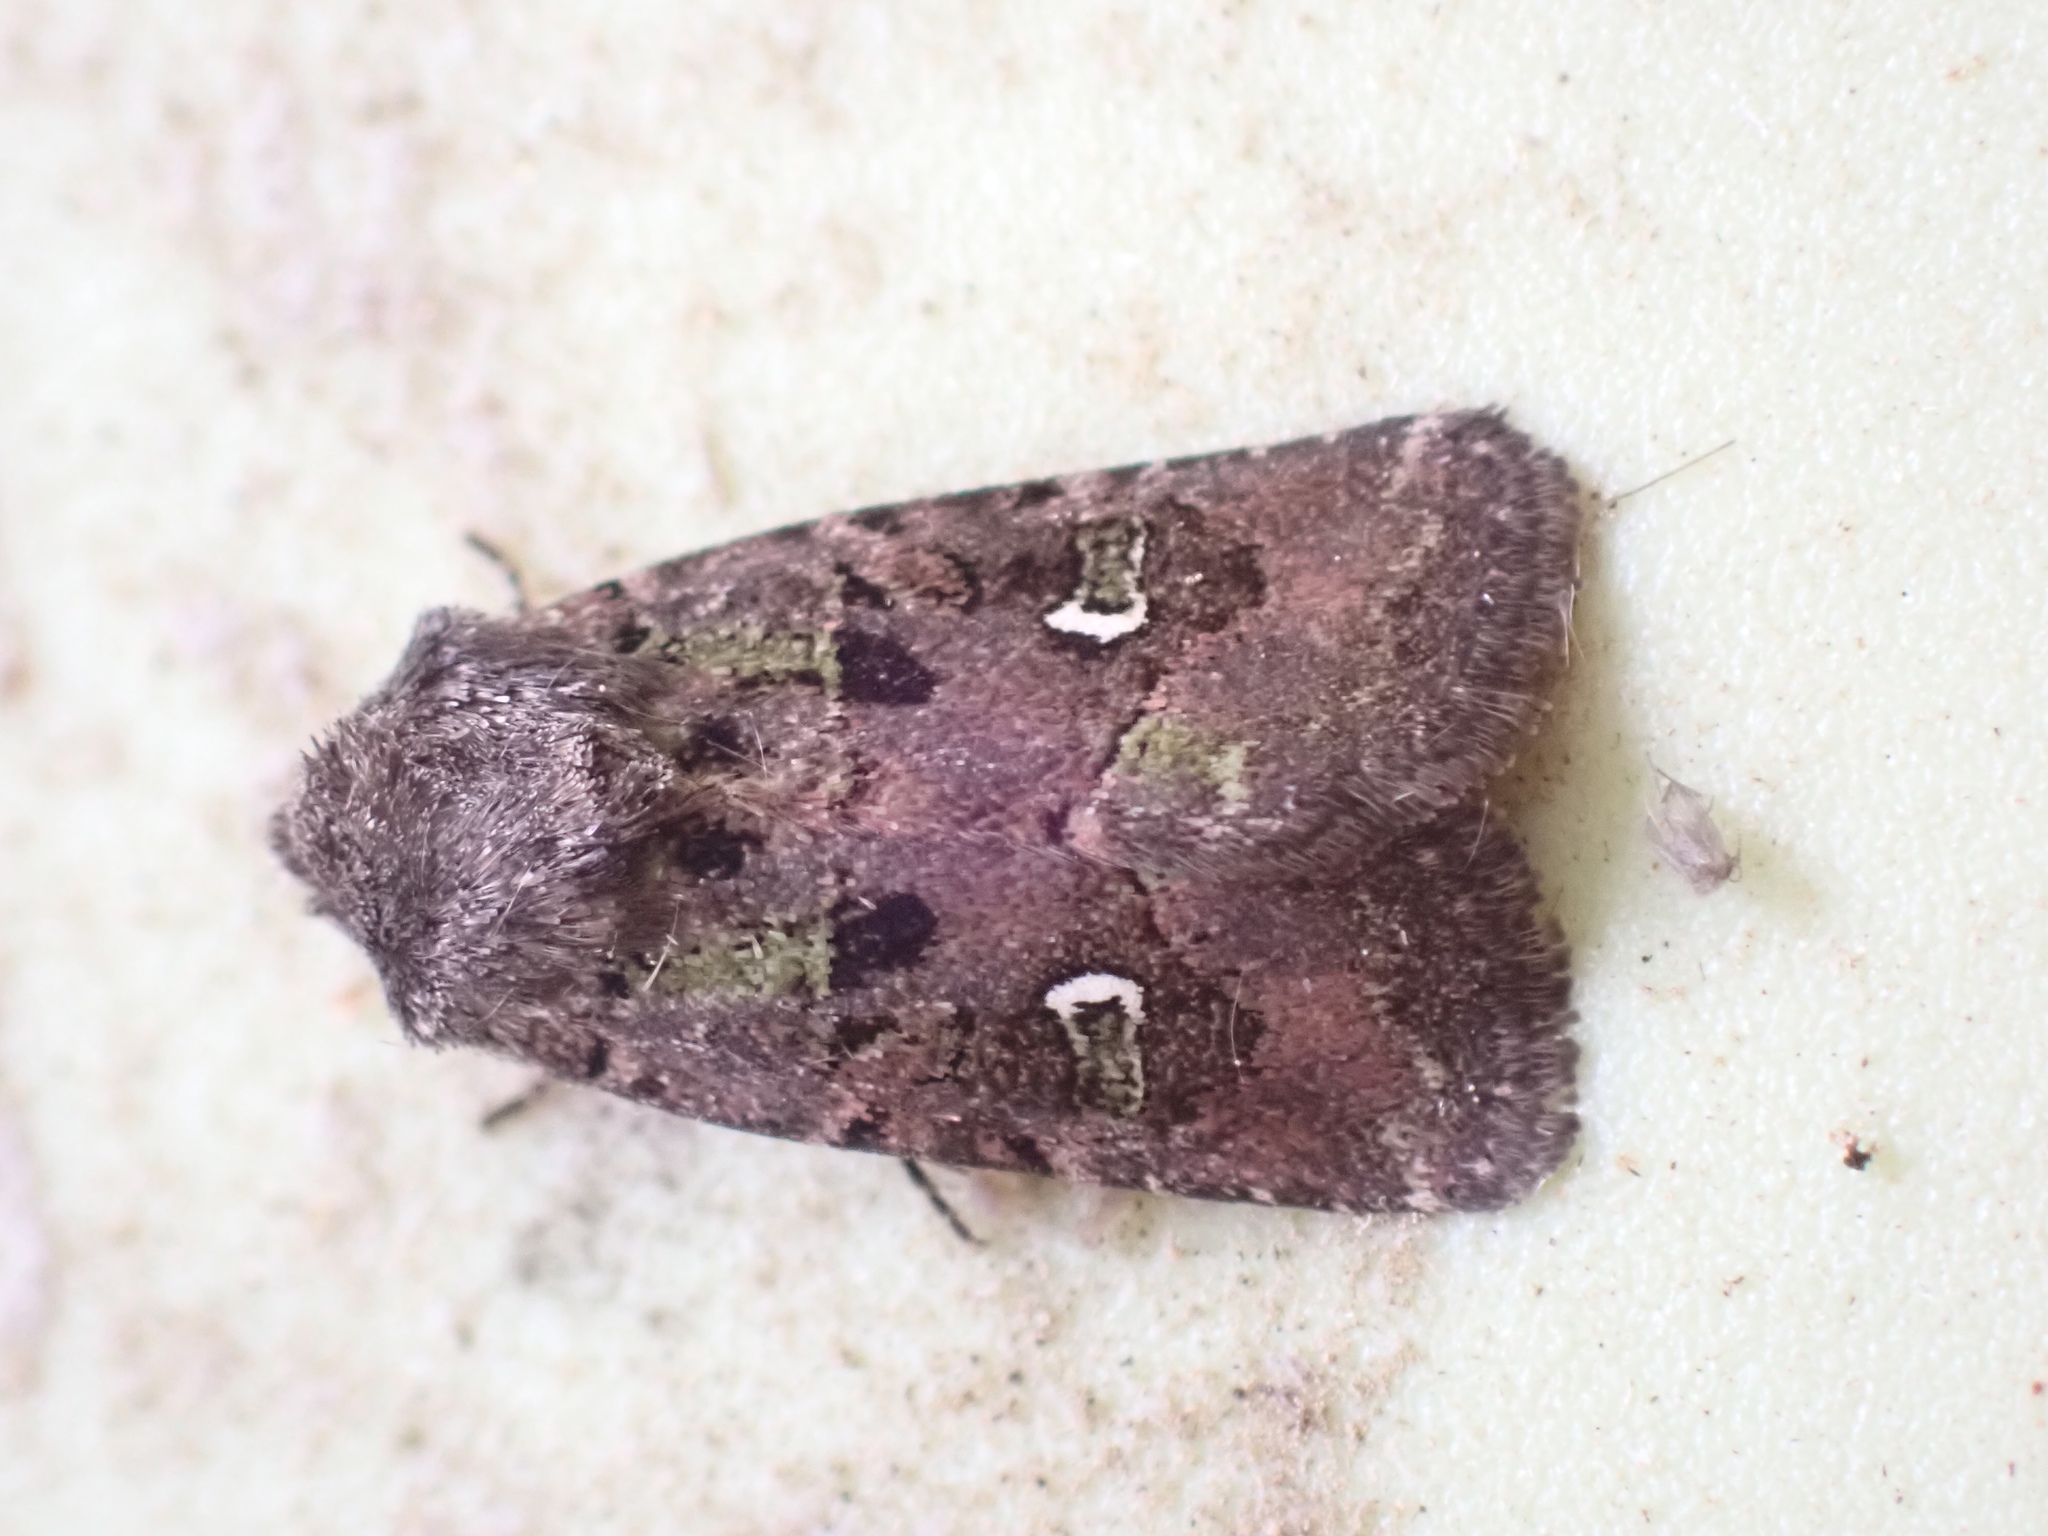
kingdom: Animalia
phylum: Arthropoda
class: Insecta
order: Lepidoptera
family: Noctuidae
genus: Lacinipolia
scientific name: Lacinipolia renigera
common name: Kidney-spotted minor
